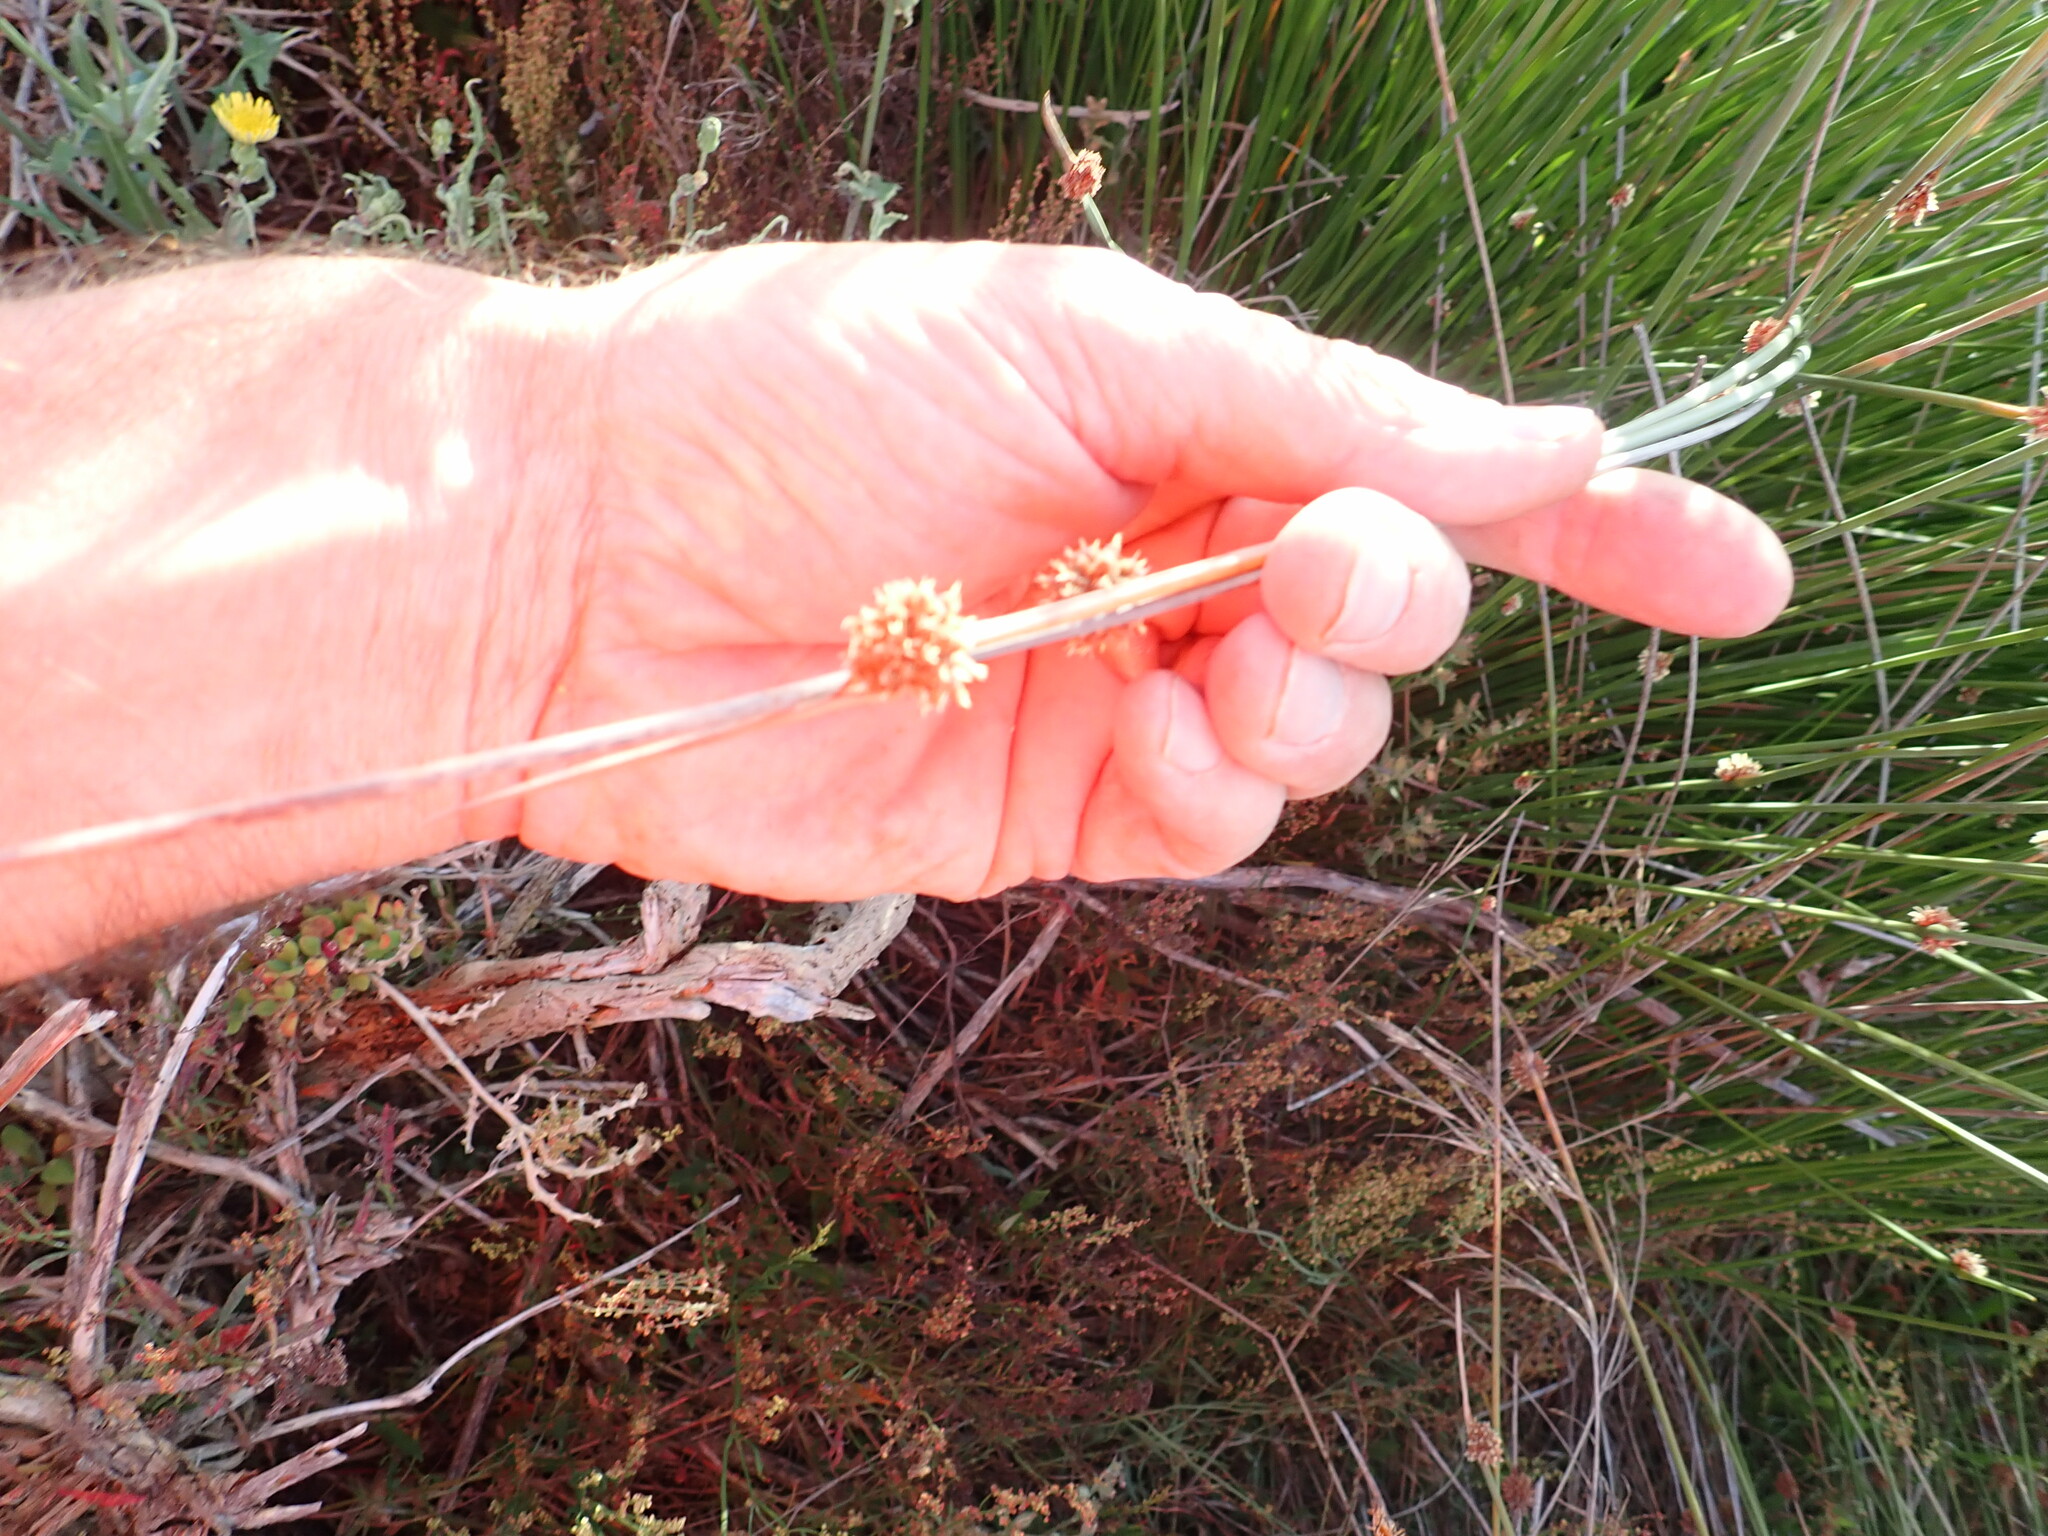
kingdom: Plantae
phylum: Tracheophyta
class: Liliopsida
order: Poales
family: Cyperaceae
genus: Ficinia
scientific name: Ficinia nodosa
